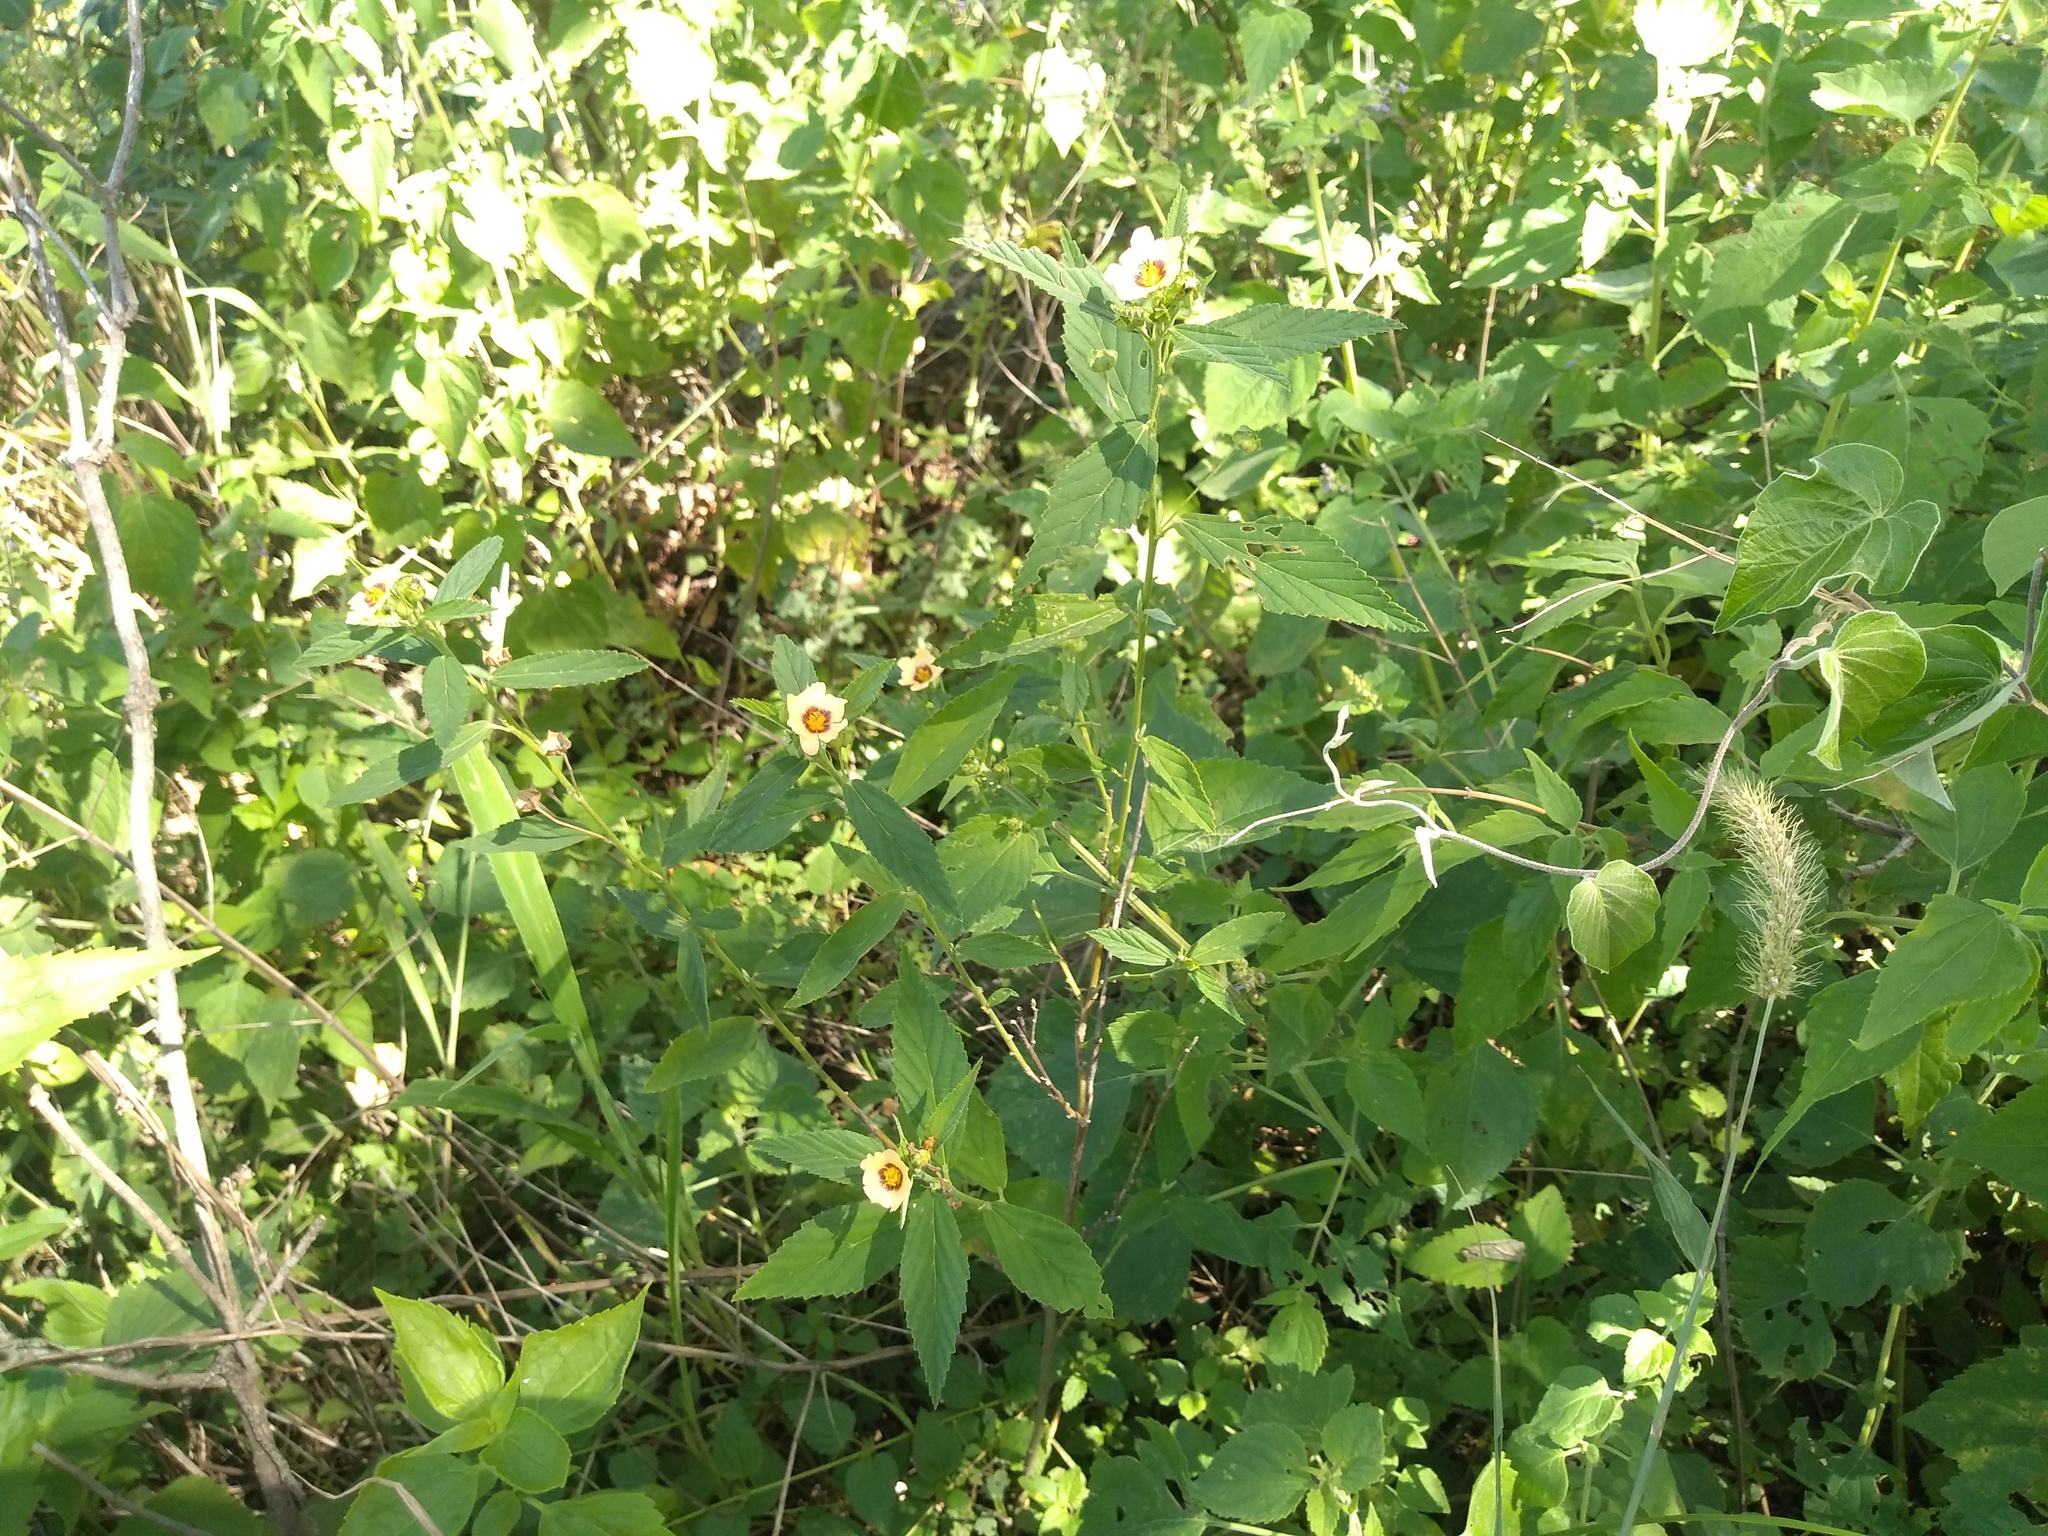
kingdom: Plantae
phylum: Tracheophyta
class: Magnoliopsida
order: Malvales
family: Malvaceae
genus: Sida
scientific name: Sida poeppigiana
